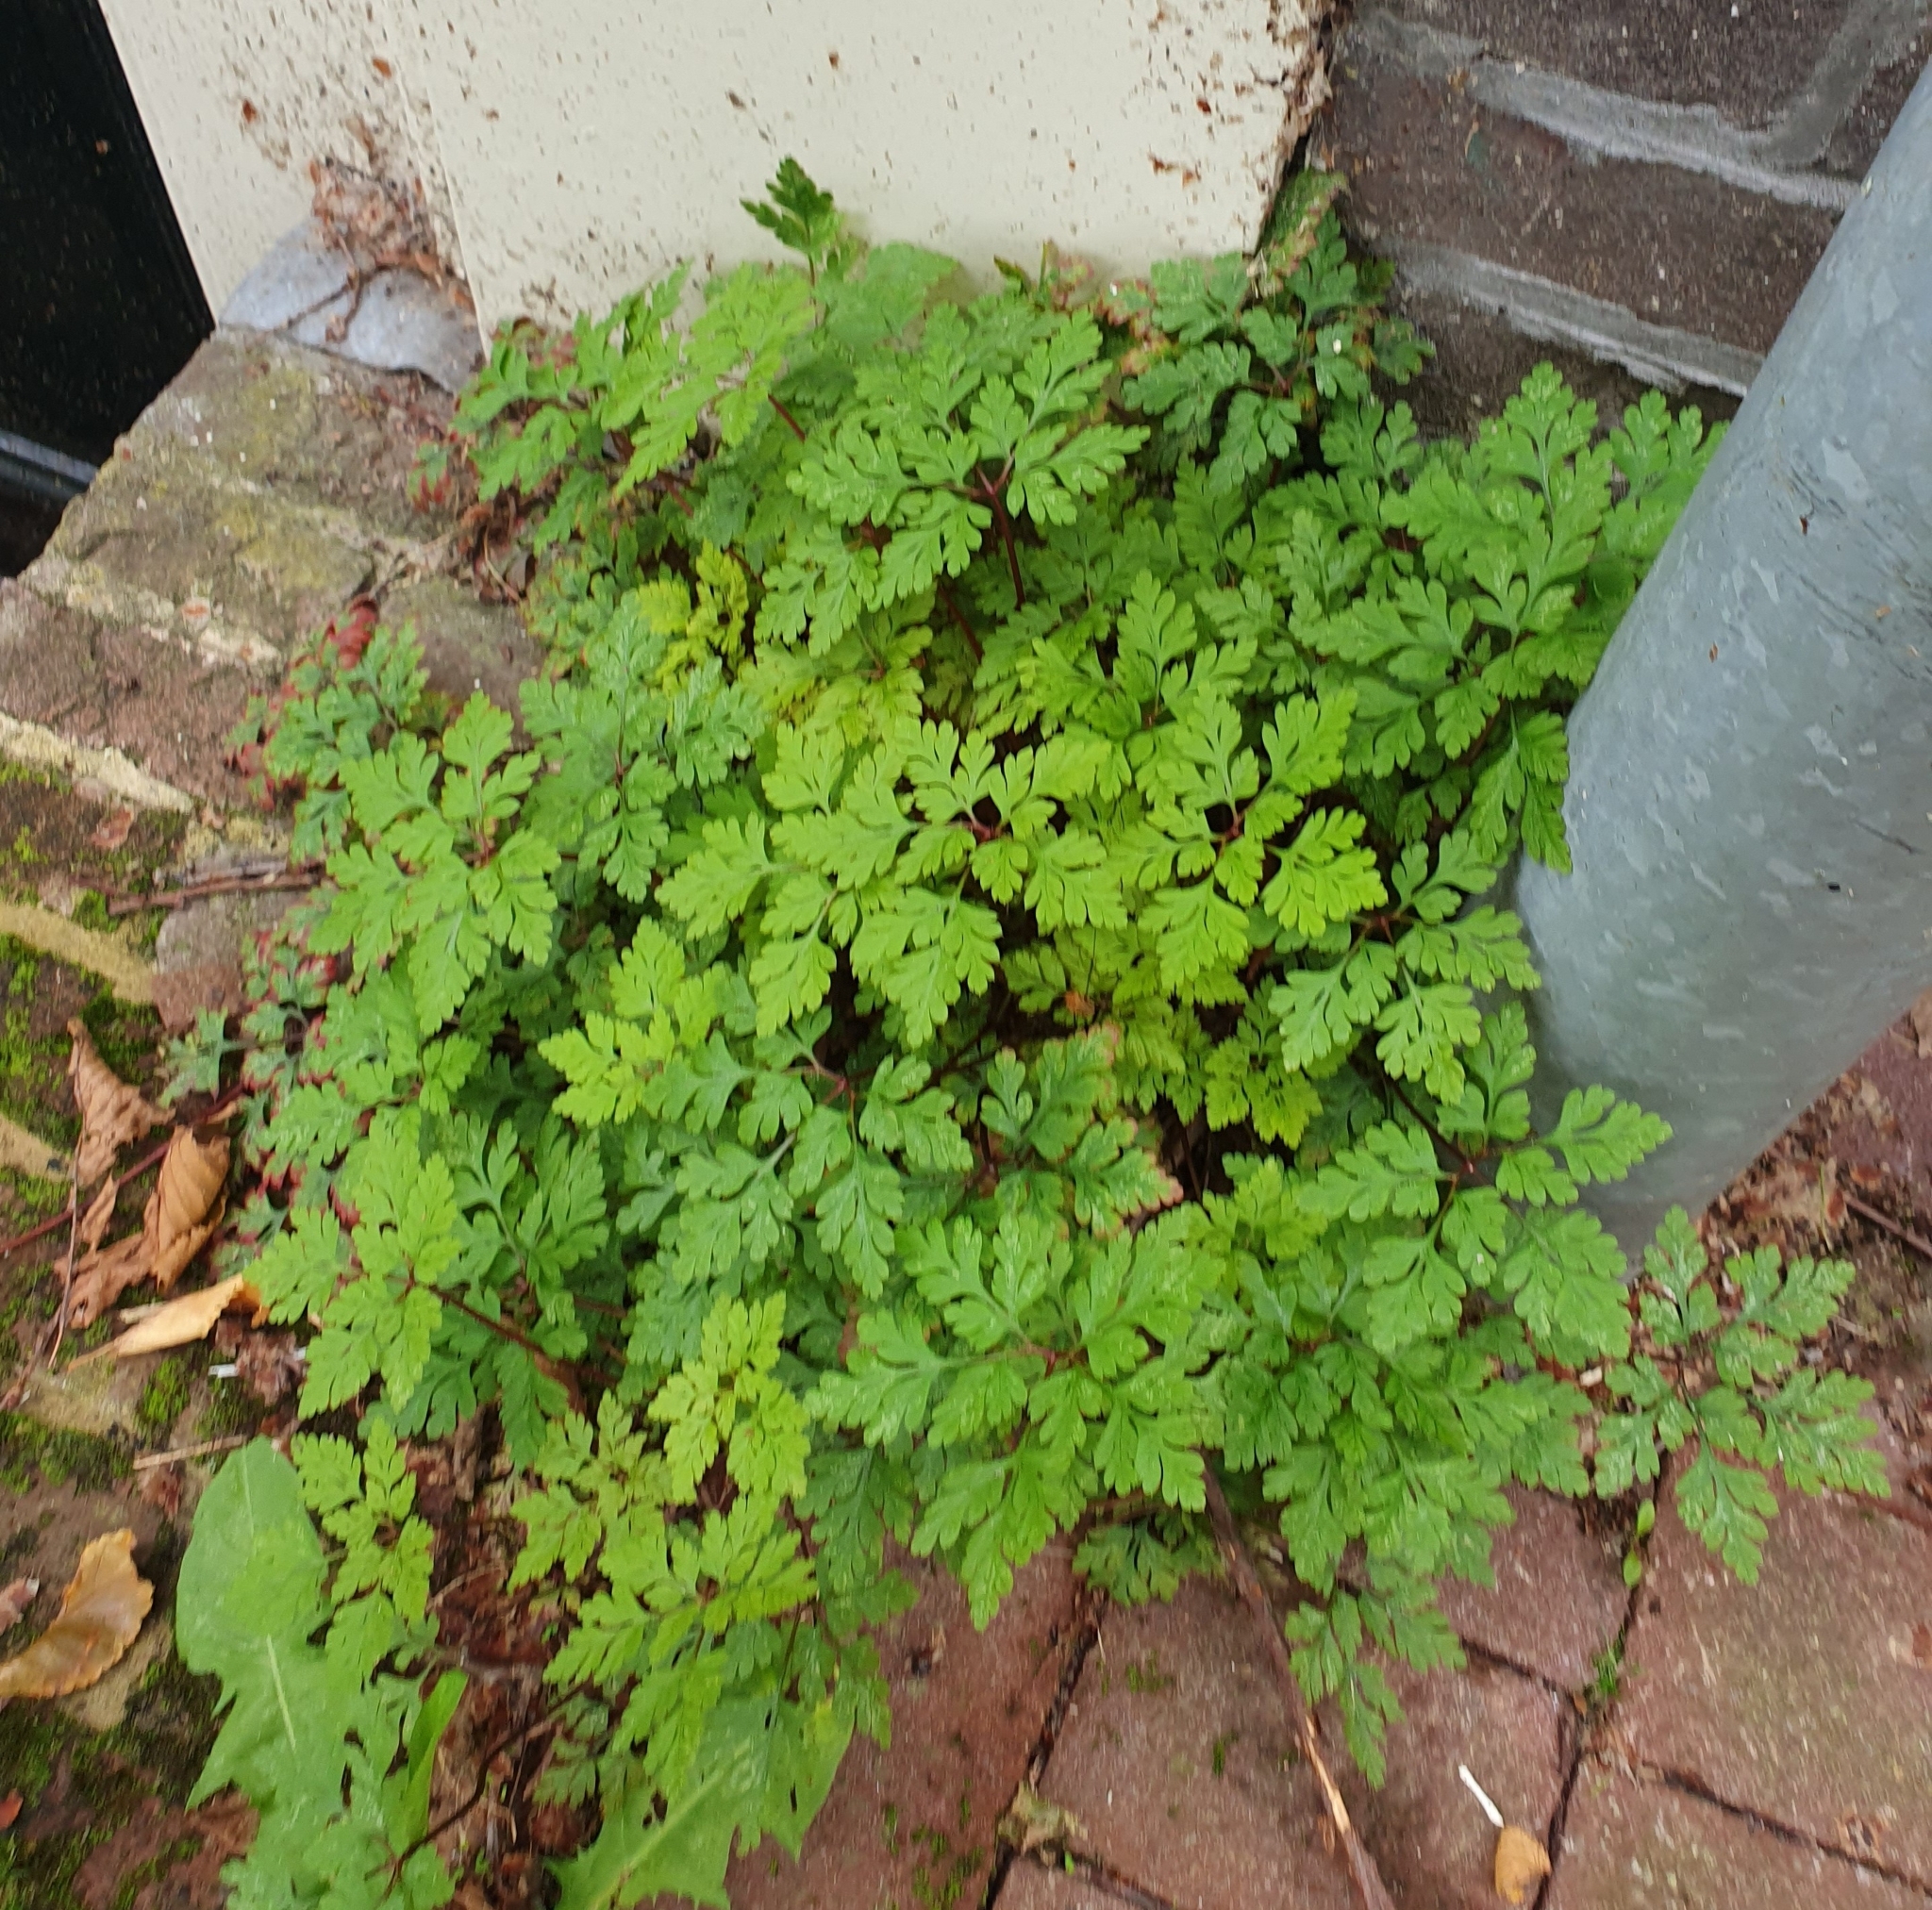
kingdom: Plantae
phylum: Tracheophyta
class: Magnoliopsida
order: Geraniales
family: Geraniaceae
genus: Geranium
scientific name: Geranium robertianum
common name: Herb-robert
